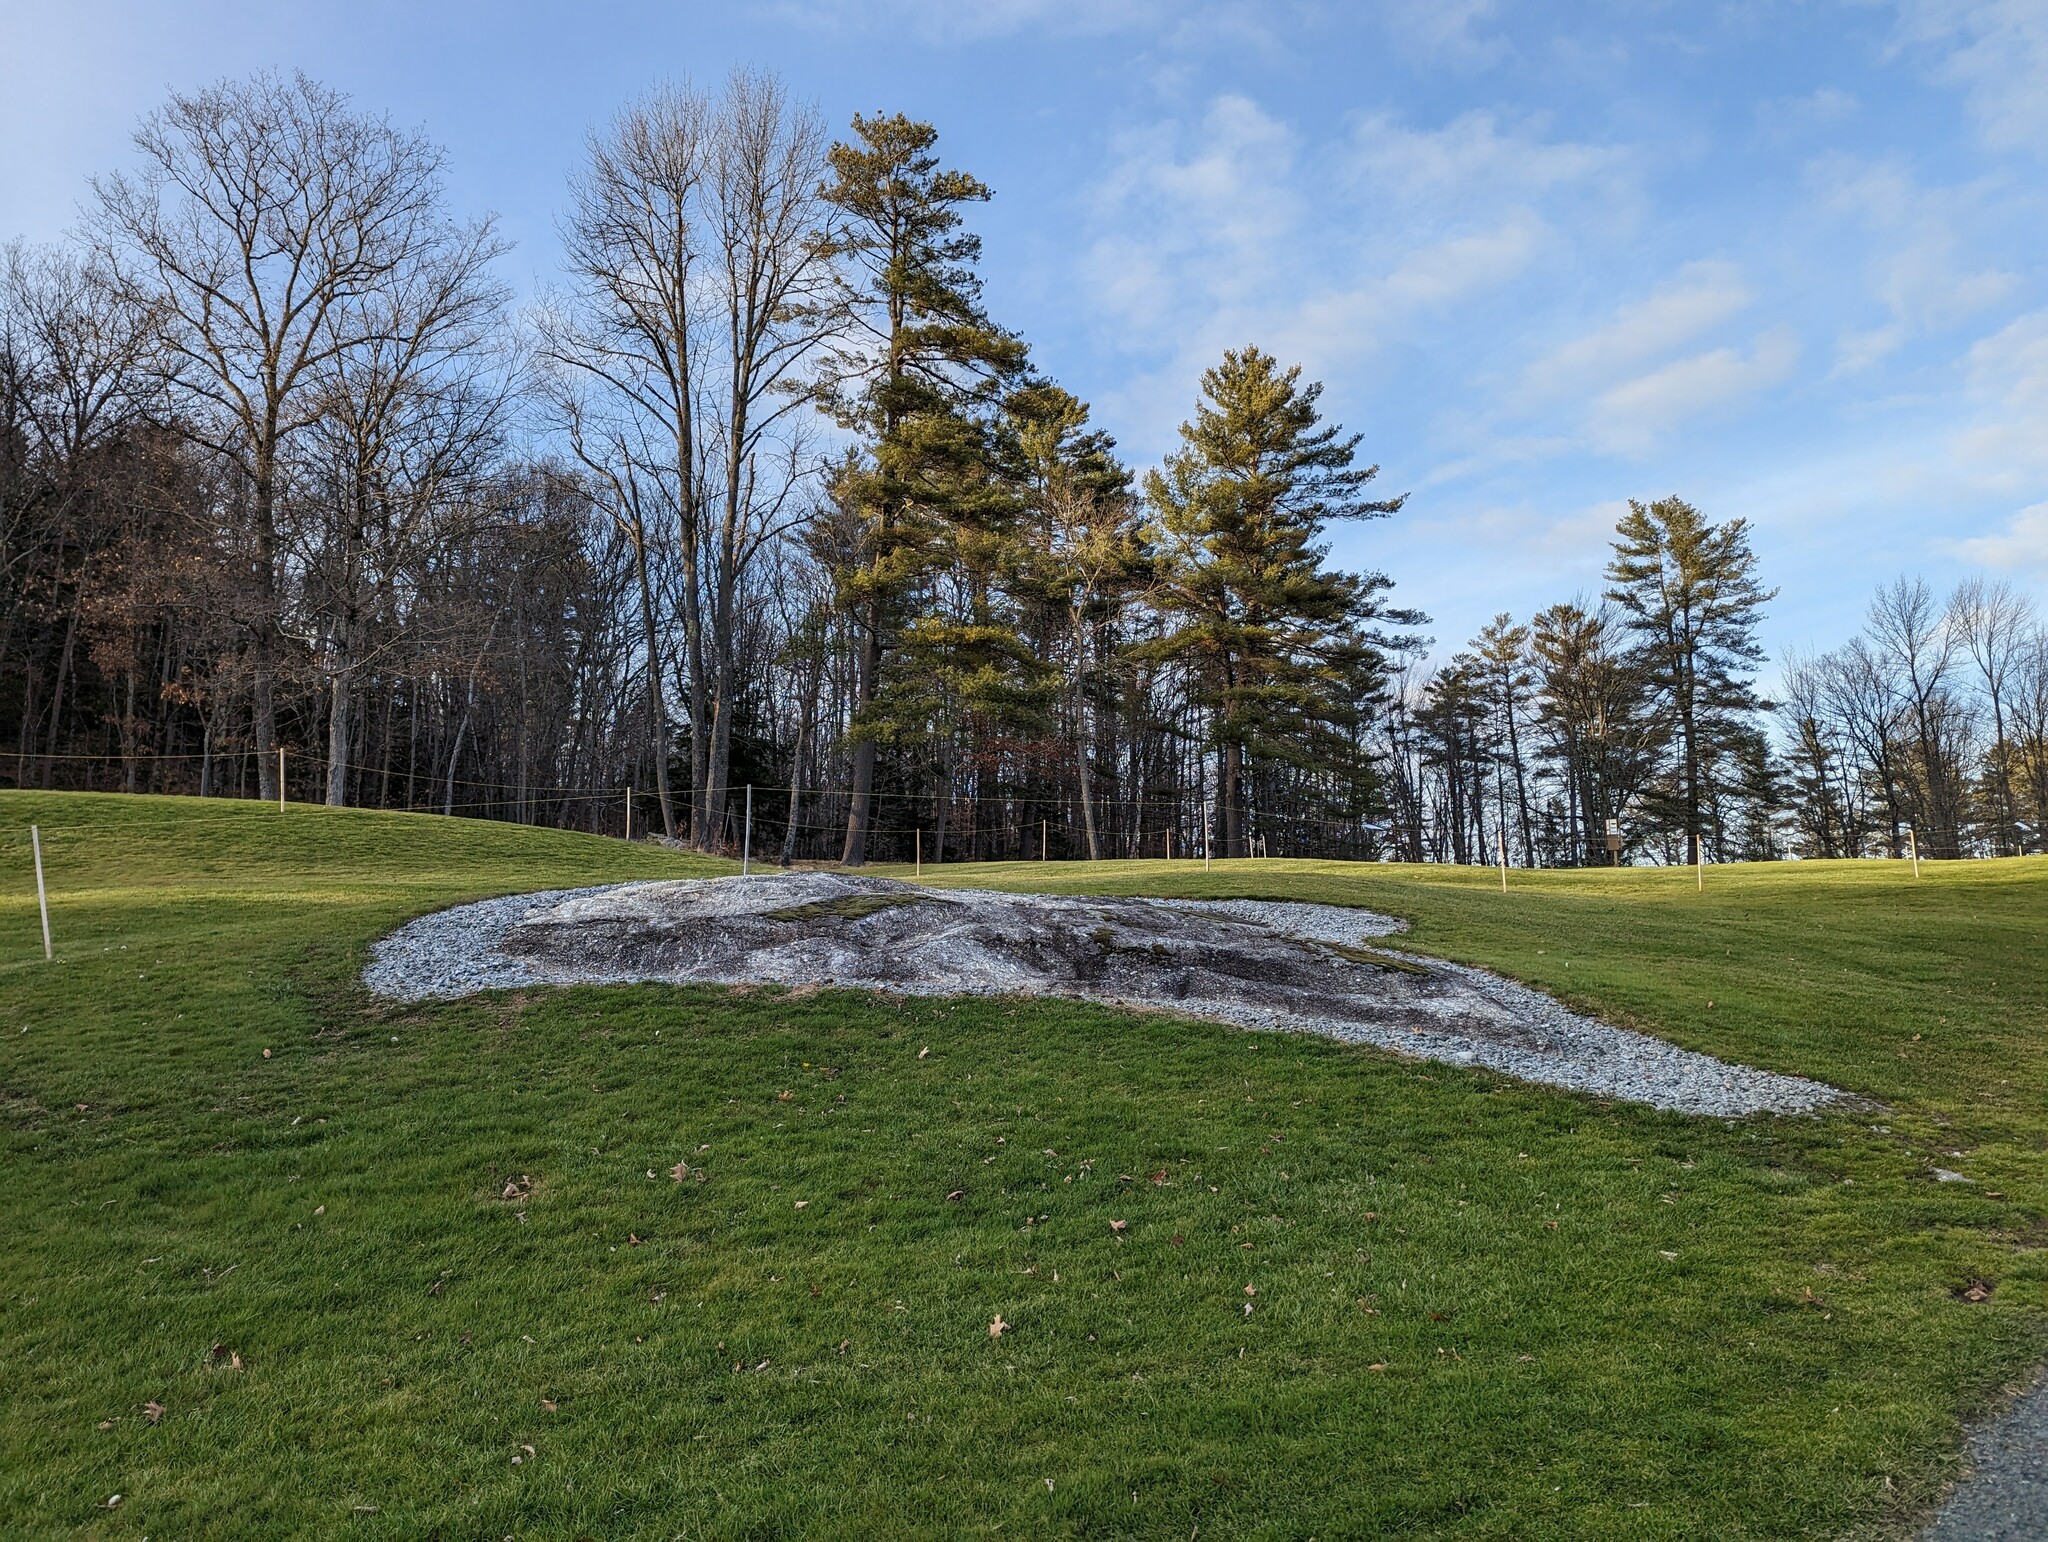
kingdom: Plantae
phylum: Tracheophyta
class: Pinopsida
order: Pinales
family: Pinaceae
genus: Pinus
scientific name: Pinus strobus
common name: Weymouth pine
